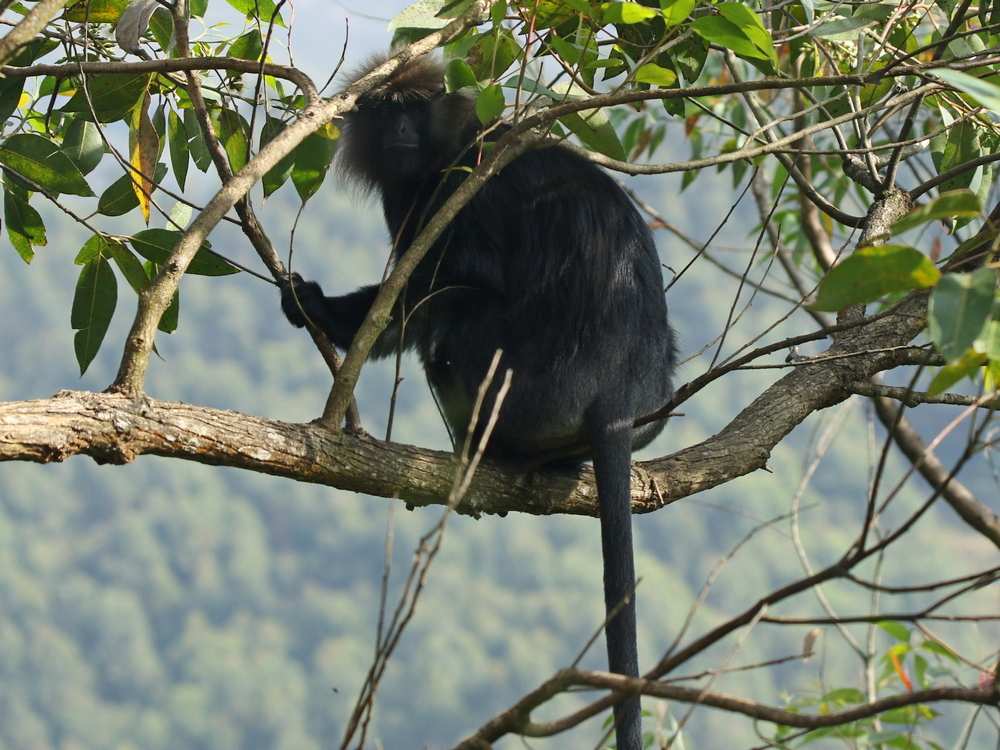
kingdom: Animalia
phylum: Chordata
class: Mammalia
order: Primates
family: Cercopithecidae
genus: Semnopithecus
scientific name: Semnopithecus johnii
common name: Nilgiri langur
